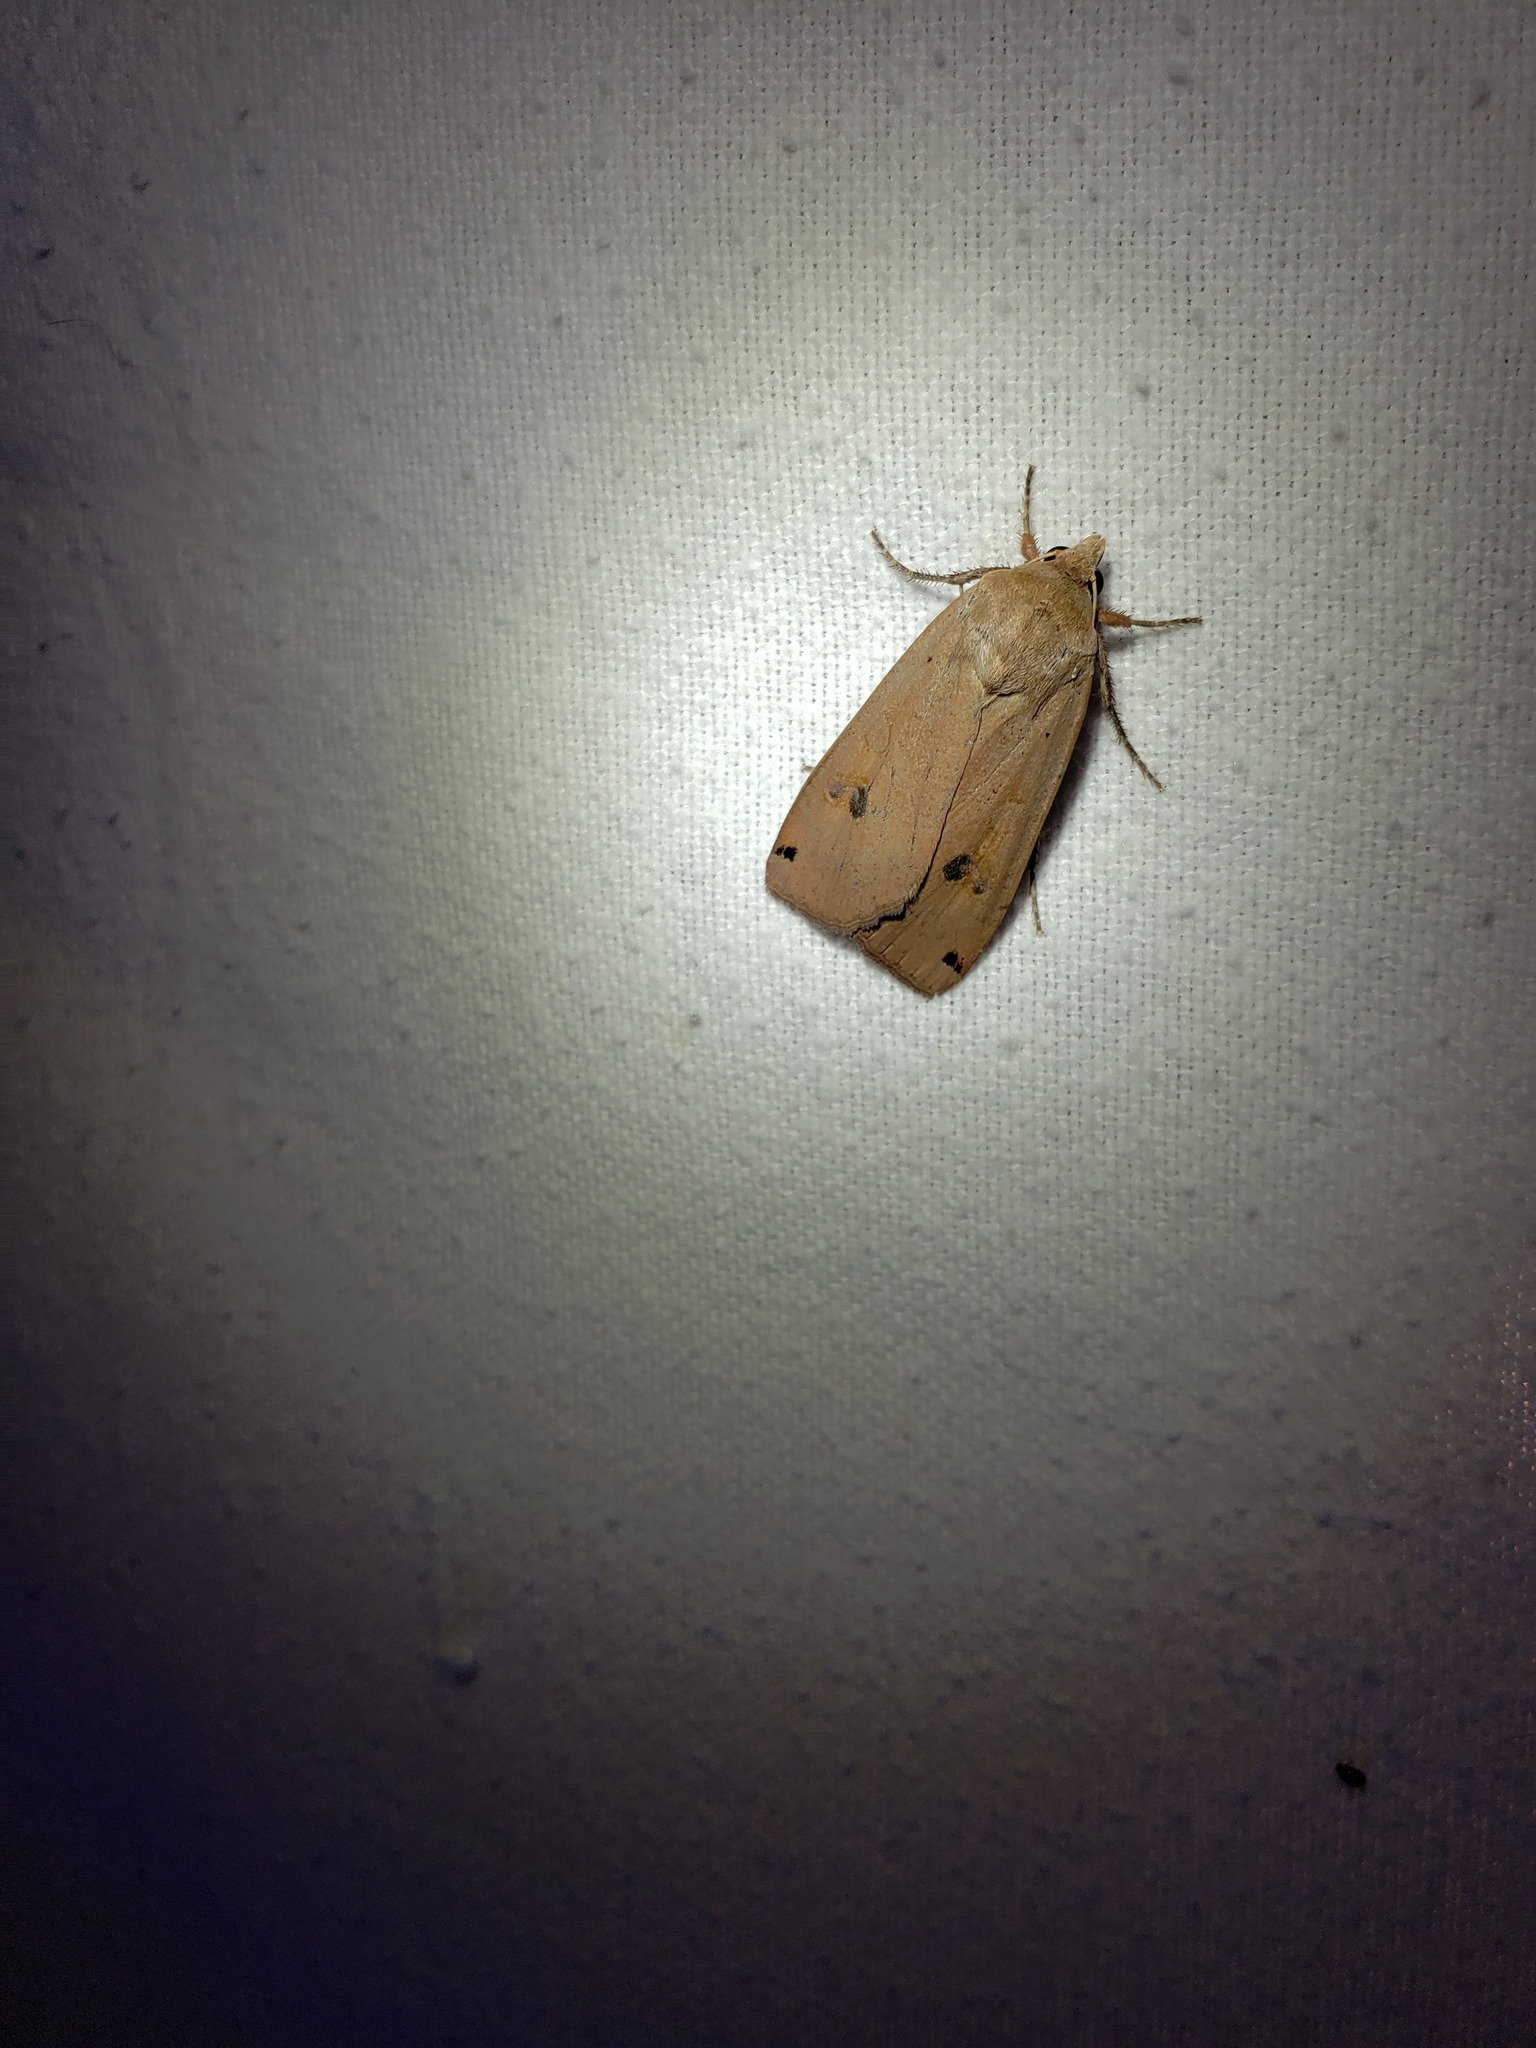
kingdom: Animalia
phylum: Arthropoda
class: Insecta
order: Lepidoptera
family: Noctuidae
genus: Noctua
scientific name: Noctua pronuba
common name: Large yellow underwing
